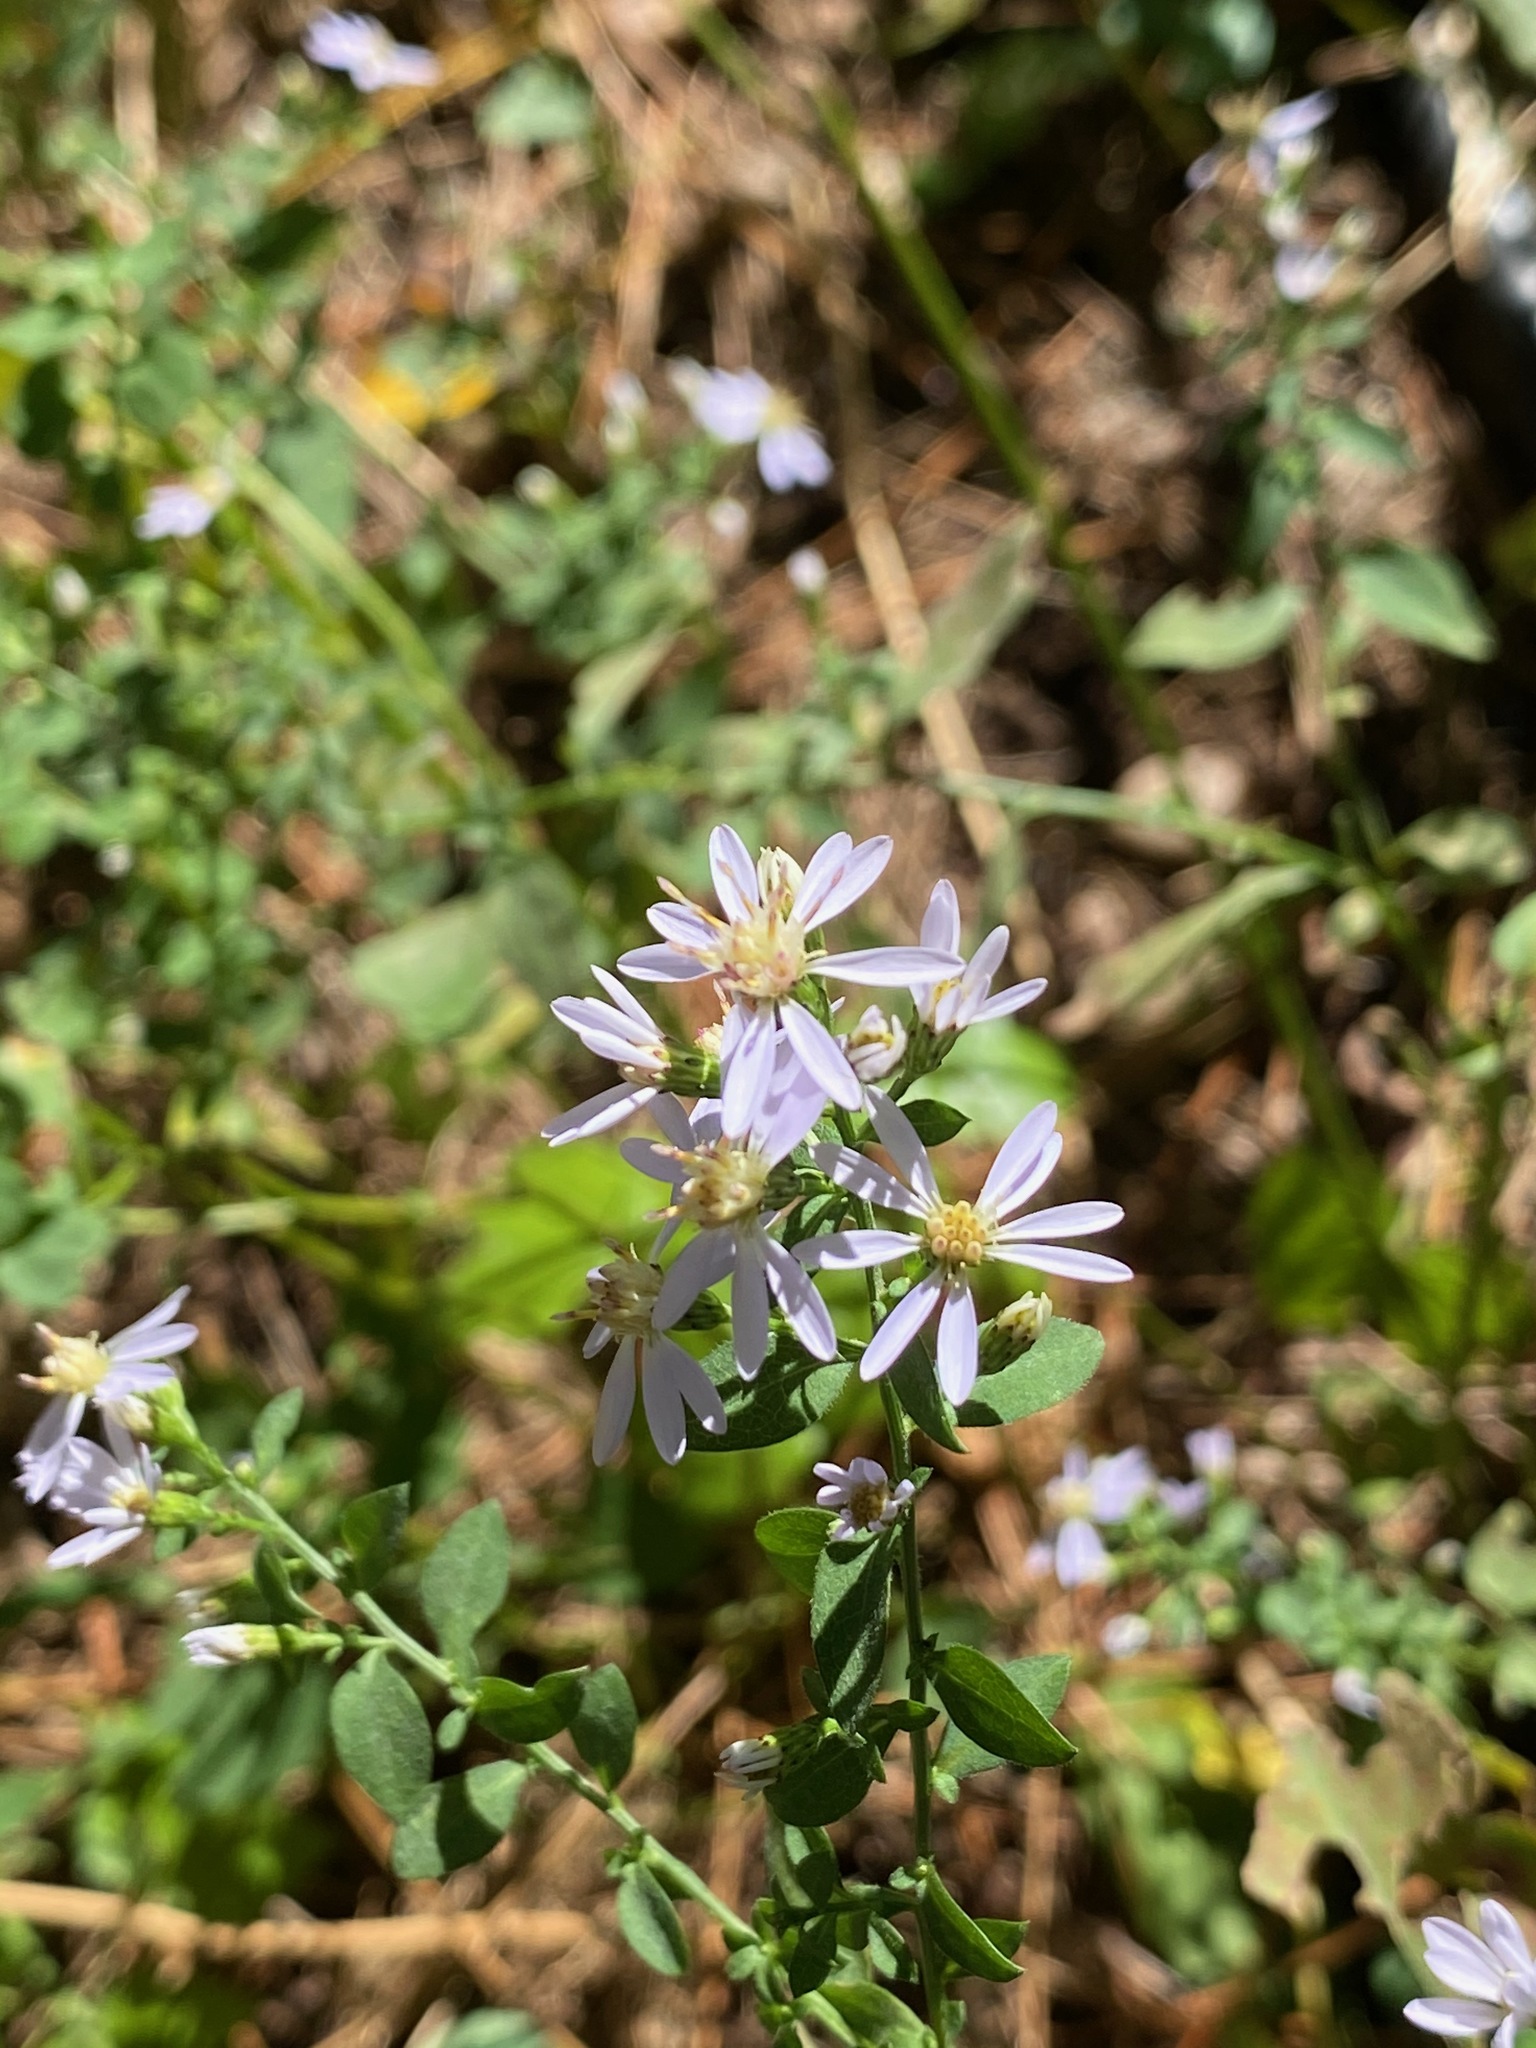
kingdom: Plantae
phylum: Tracheophyta
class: Magnoliopsida
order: Asterales
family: Asteraceae
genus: Symphyotrichum
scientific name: Symphyotrichum cordifolium
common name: Beeweed
